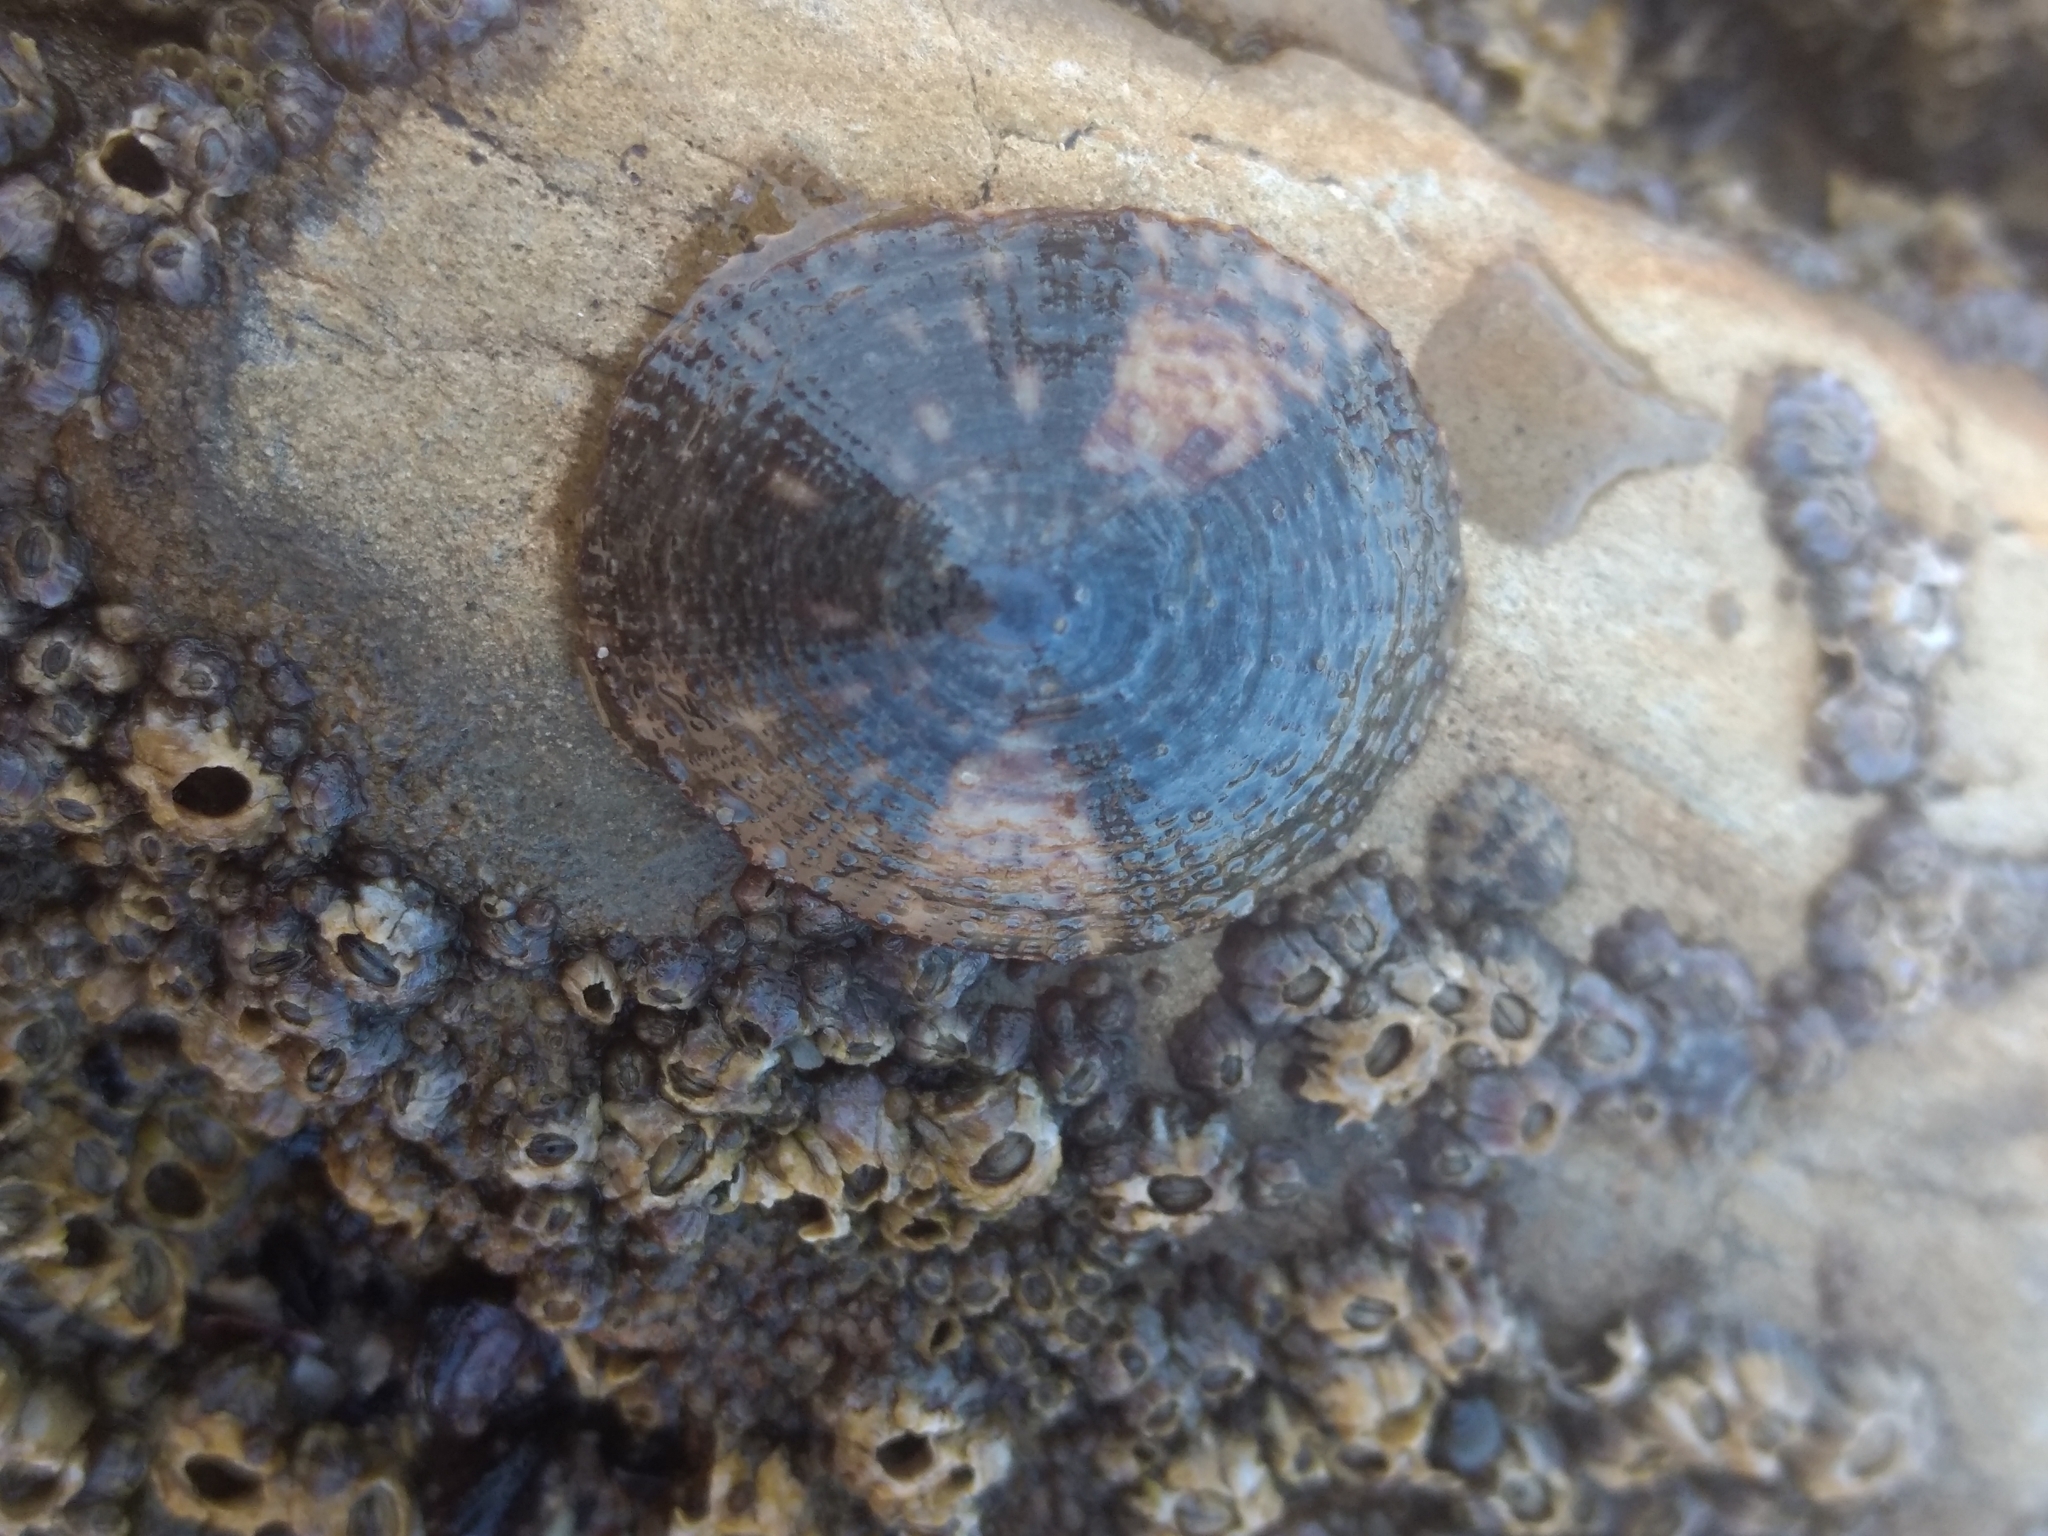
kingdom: Animalia
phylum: Mollusca
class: Gastropoda
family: Lottiidae
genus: Lottia
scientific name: Lottia limatula
